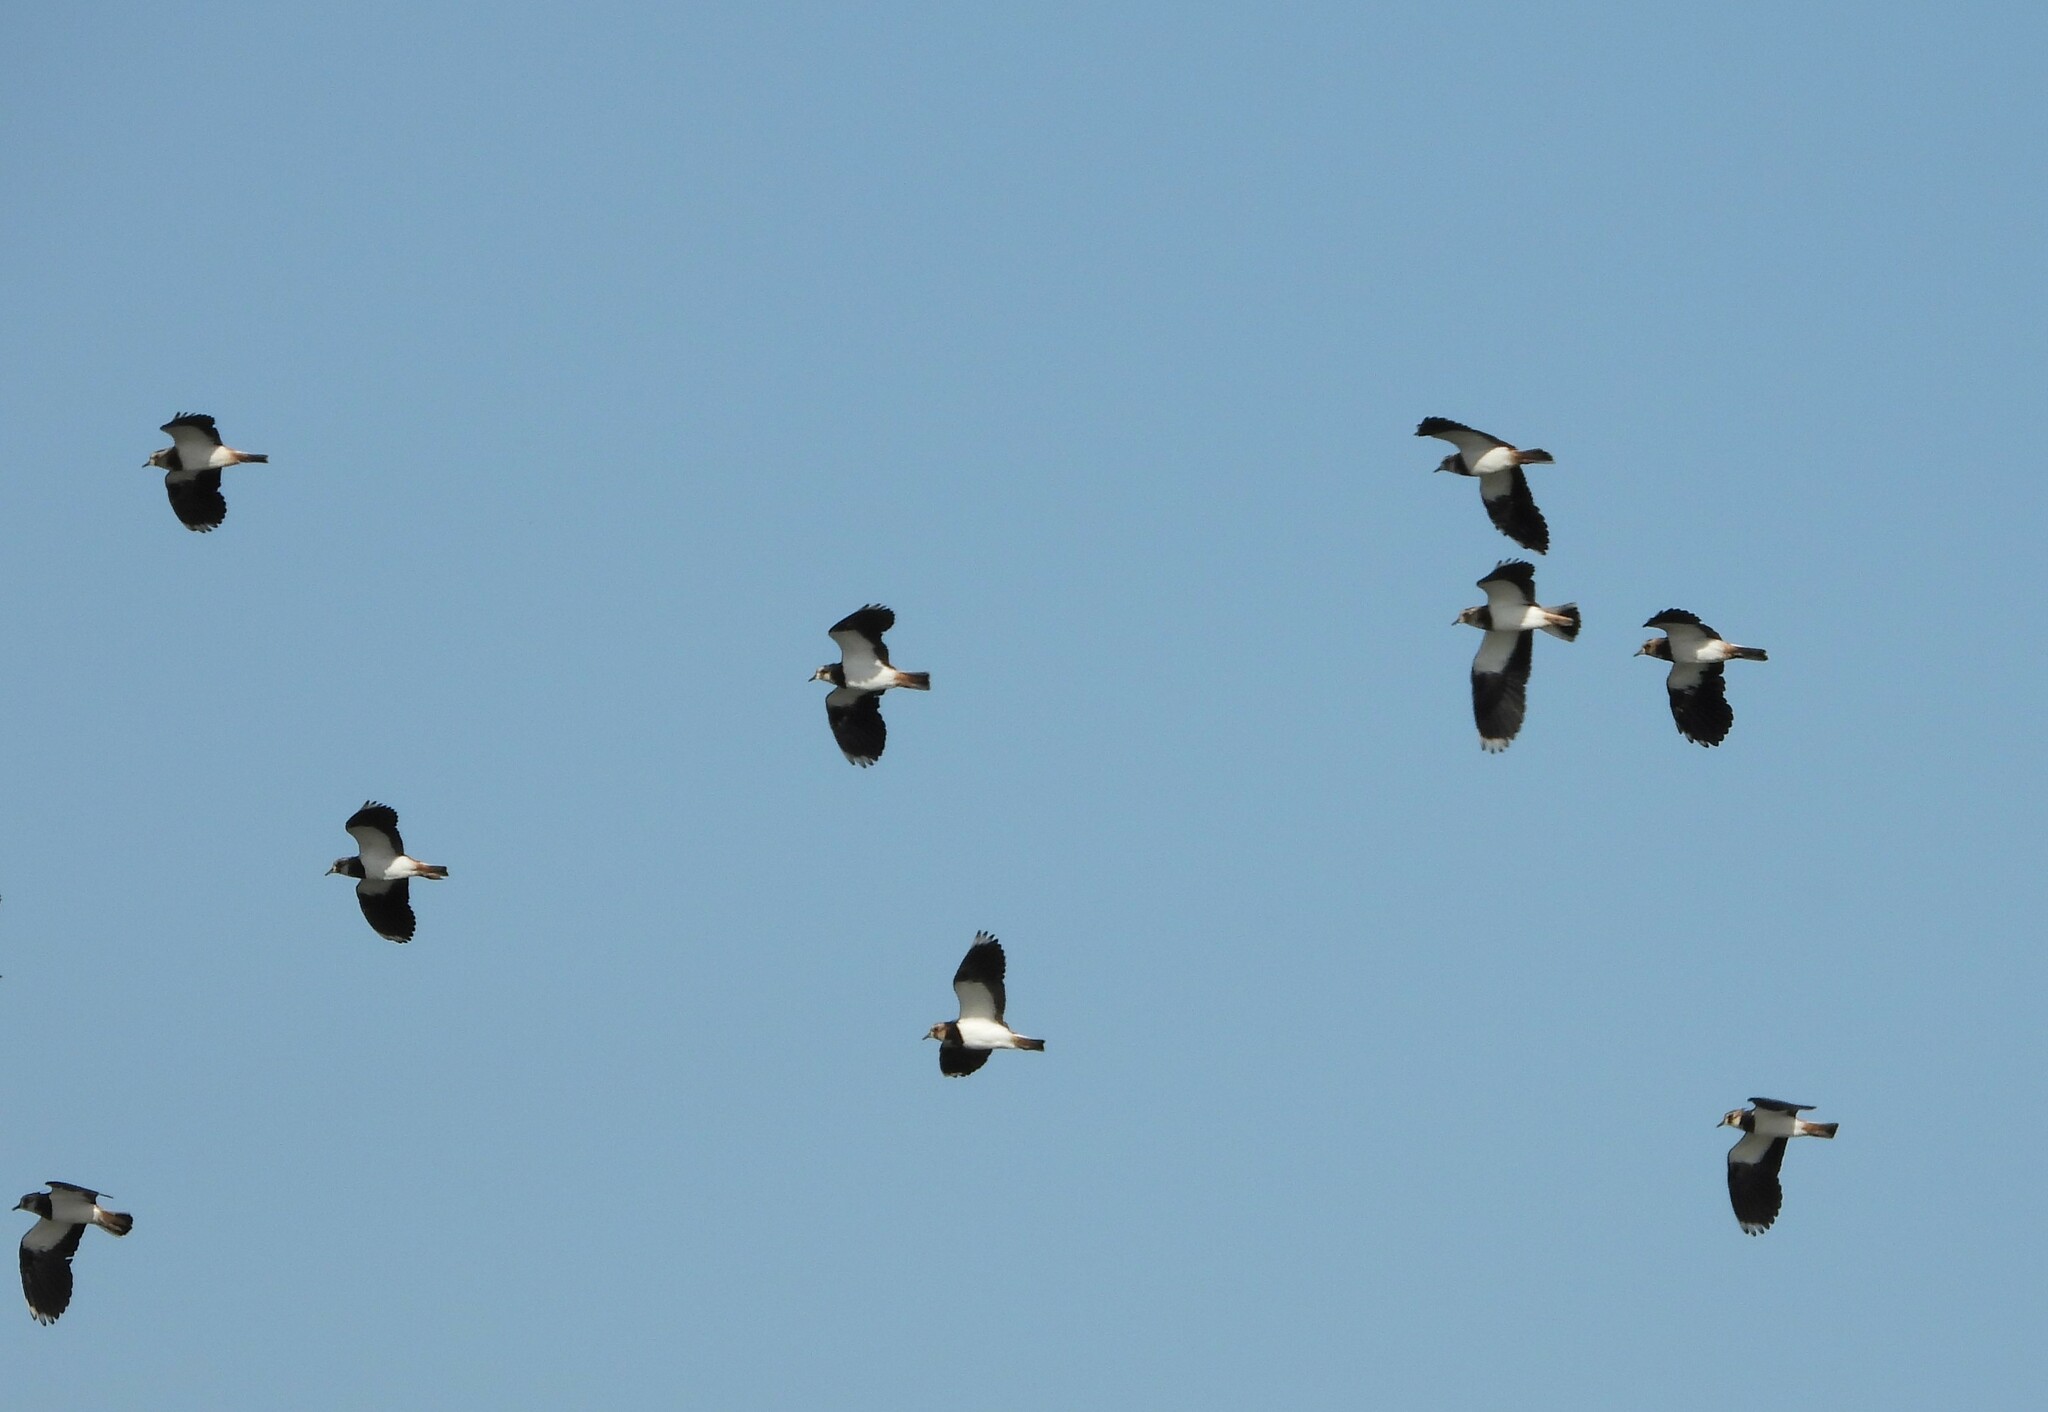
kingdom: Animalia
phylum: Chordata
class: Aves
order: Charadriiformes
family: Charadriidae
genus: Vanellus
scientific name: Vanellus vanellus
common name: Northern lapwing
